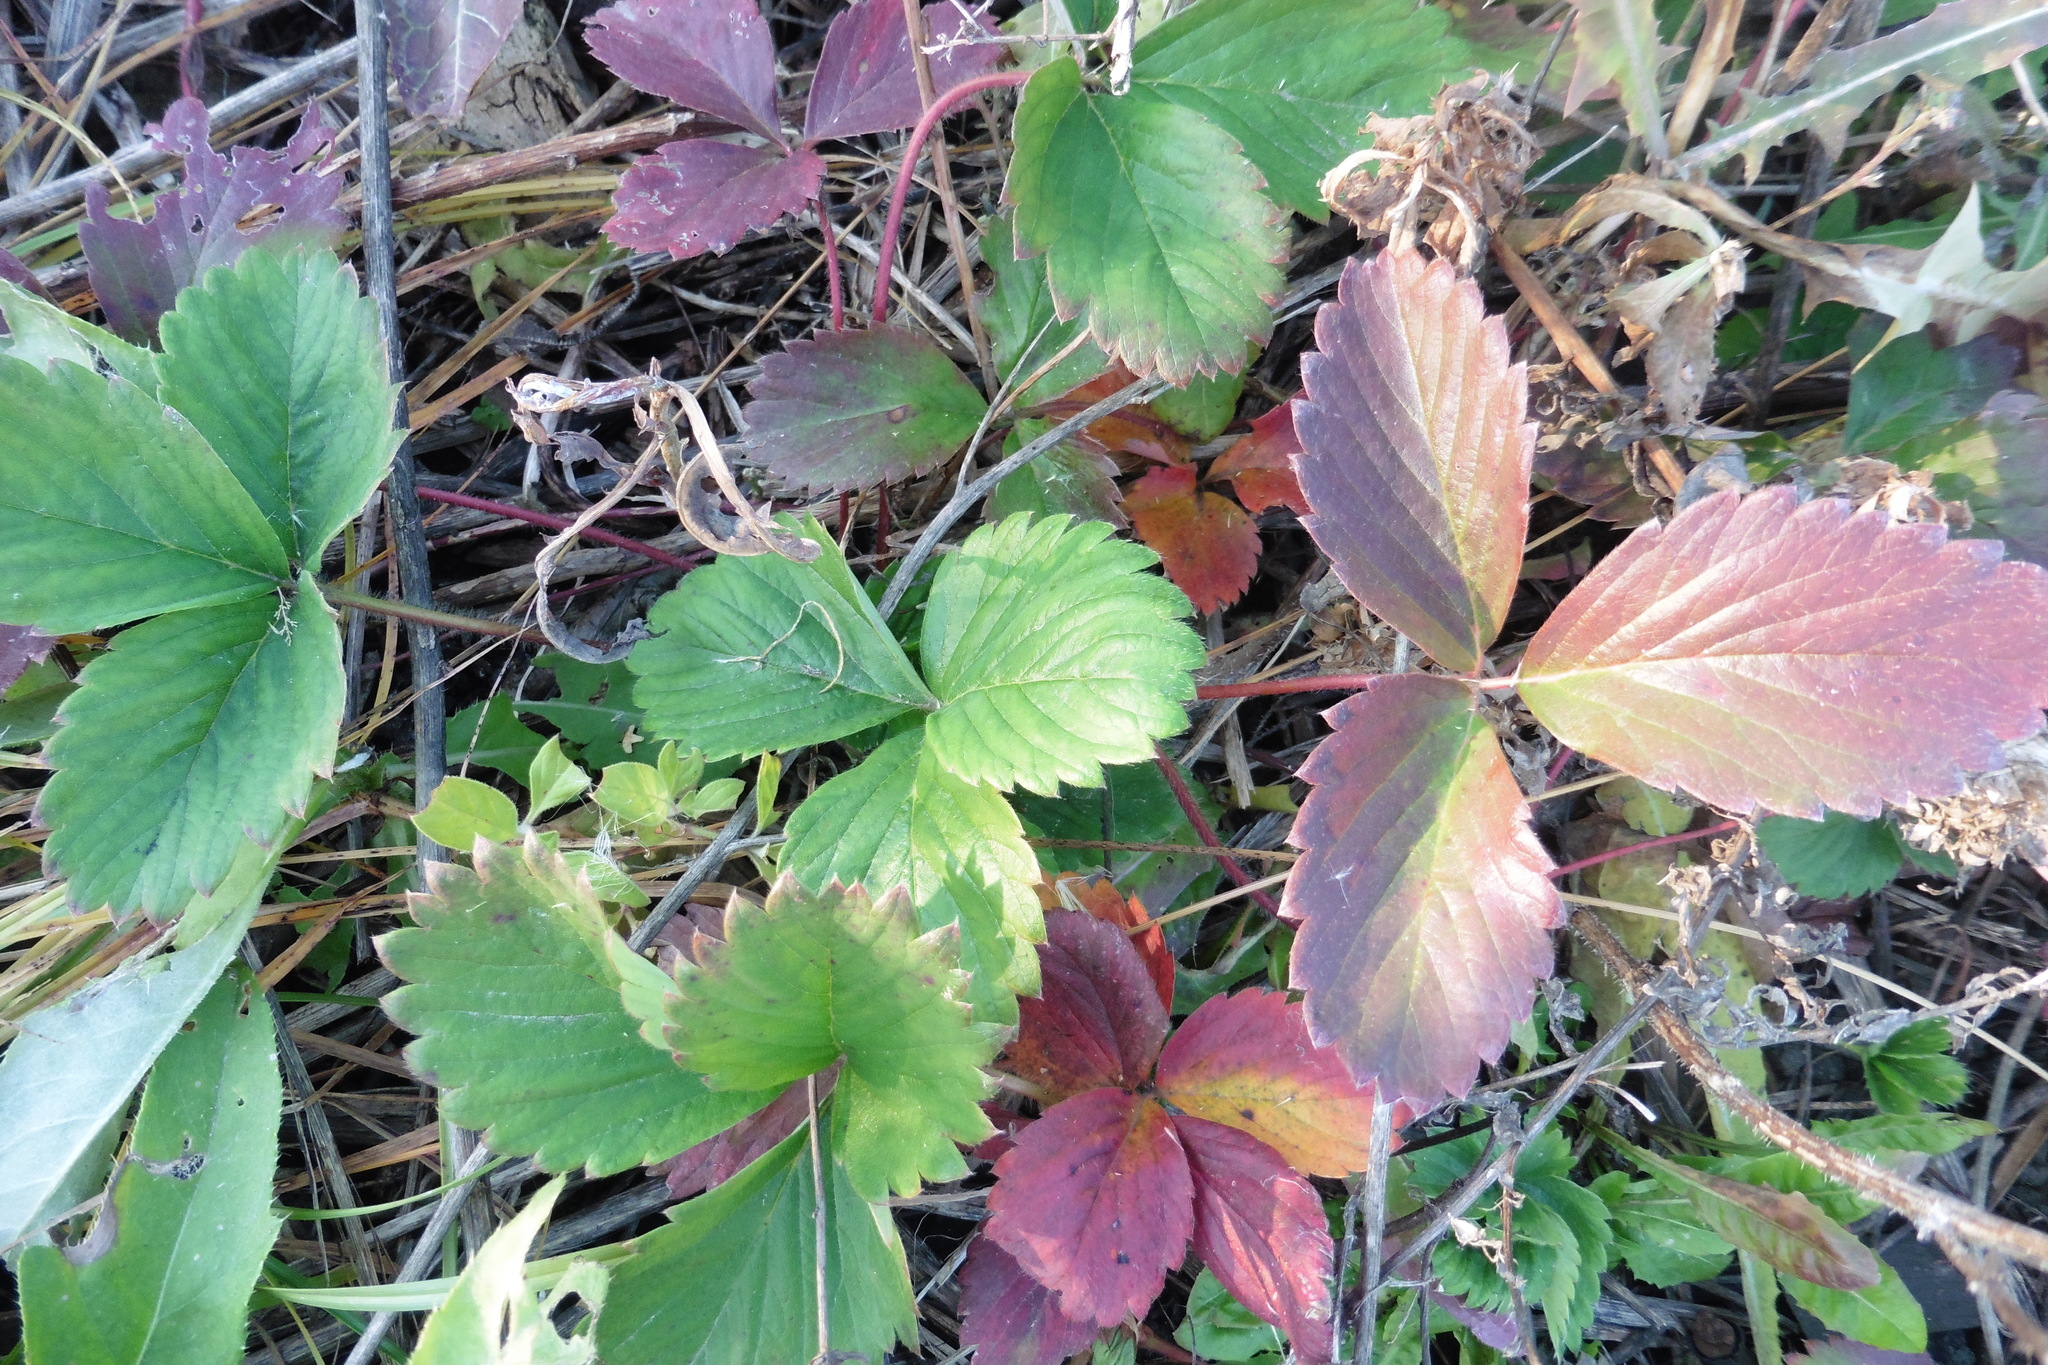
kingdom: Plantae
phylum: Tracheophyta
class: Magnoliopsida
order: Rosales
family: Rosaceae
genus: Fragaria
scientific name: Fragaria ananassa
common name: Garden strawberry
